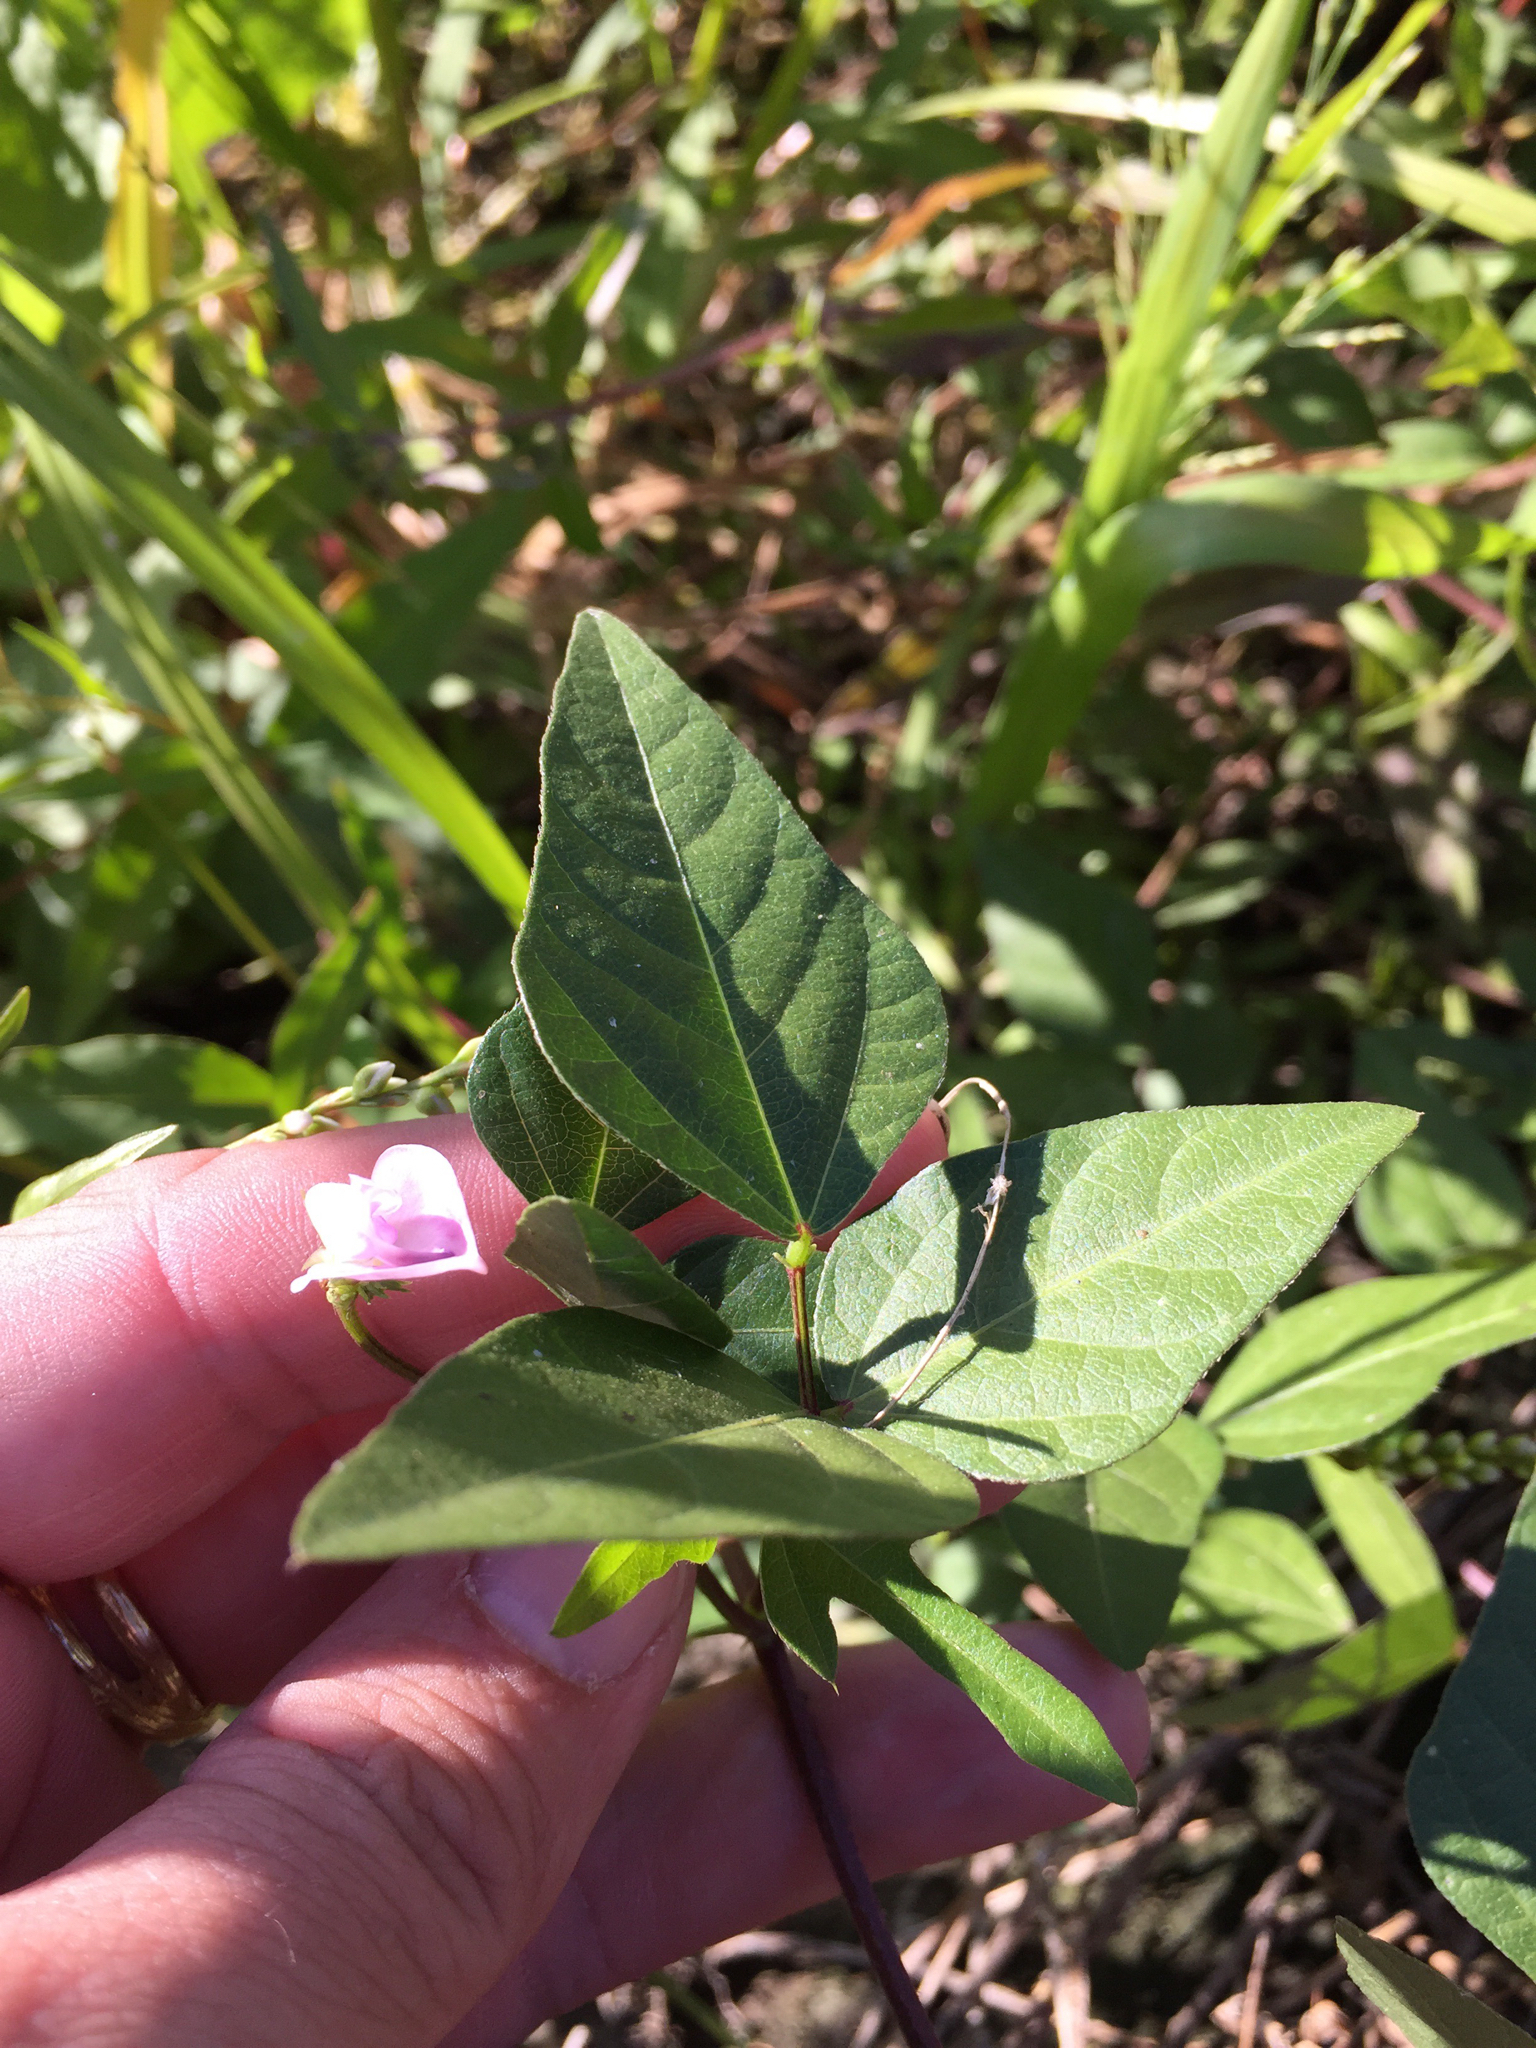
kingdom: Plantae
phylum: Tracheophyta
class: Magnoliopsida
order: Fabales
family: Fabaceae
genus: Strophostyles
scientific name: Strophostyles helvola
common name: Trailing wild bean
